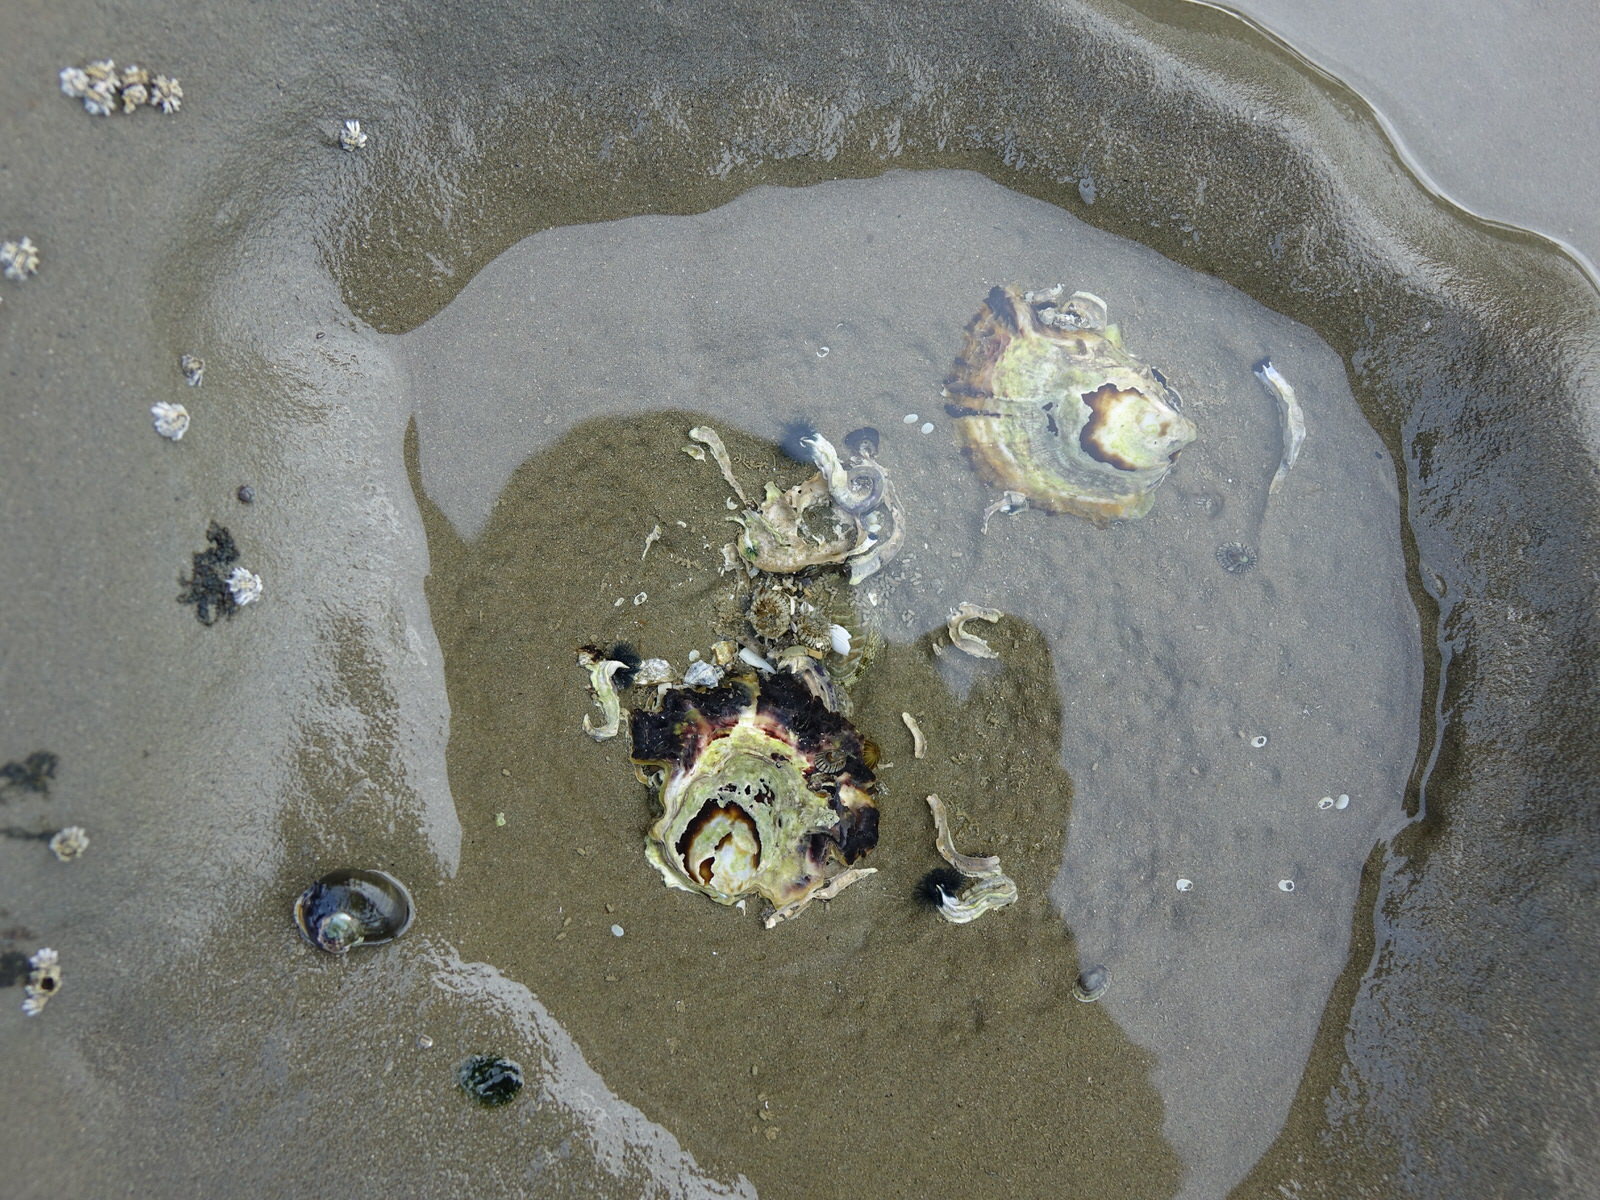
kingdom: Animalia
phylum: Mollusca
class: Bivalvia
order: Ostreida
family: Ostreidae
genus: Saccostrea
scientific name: Saccostrea glomerata
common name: Sydney cupped oyster
